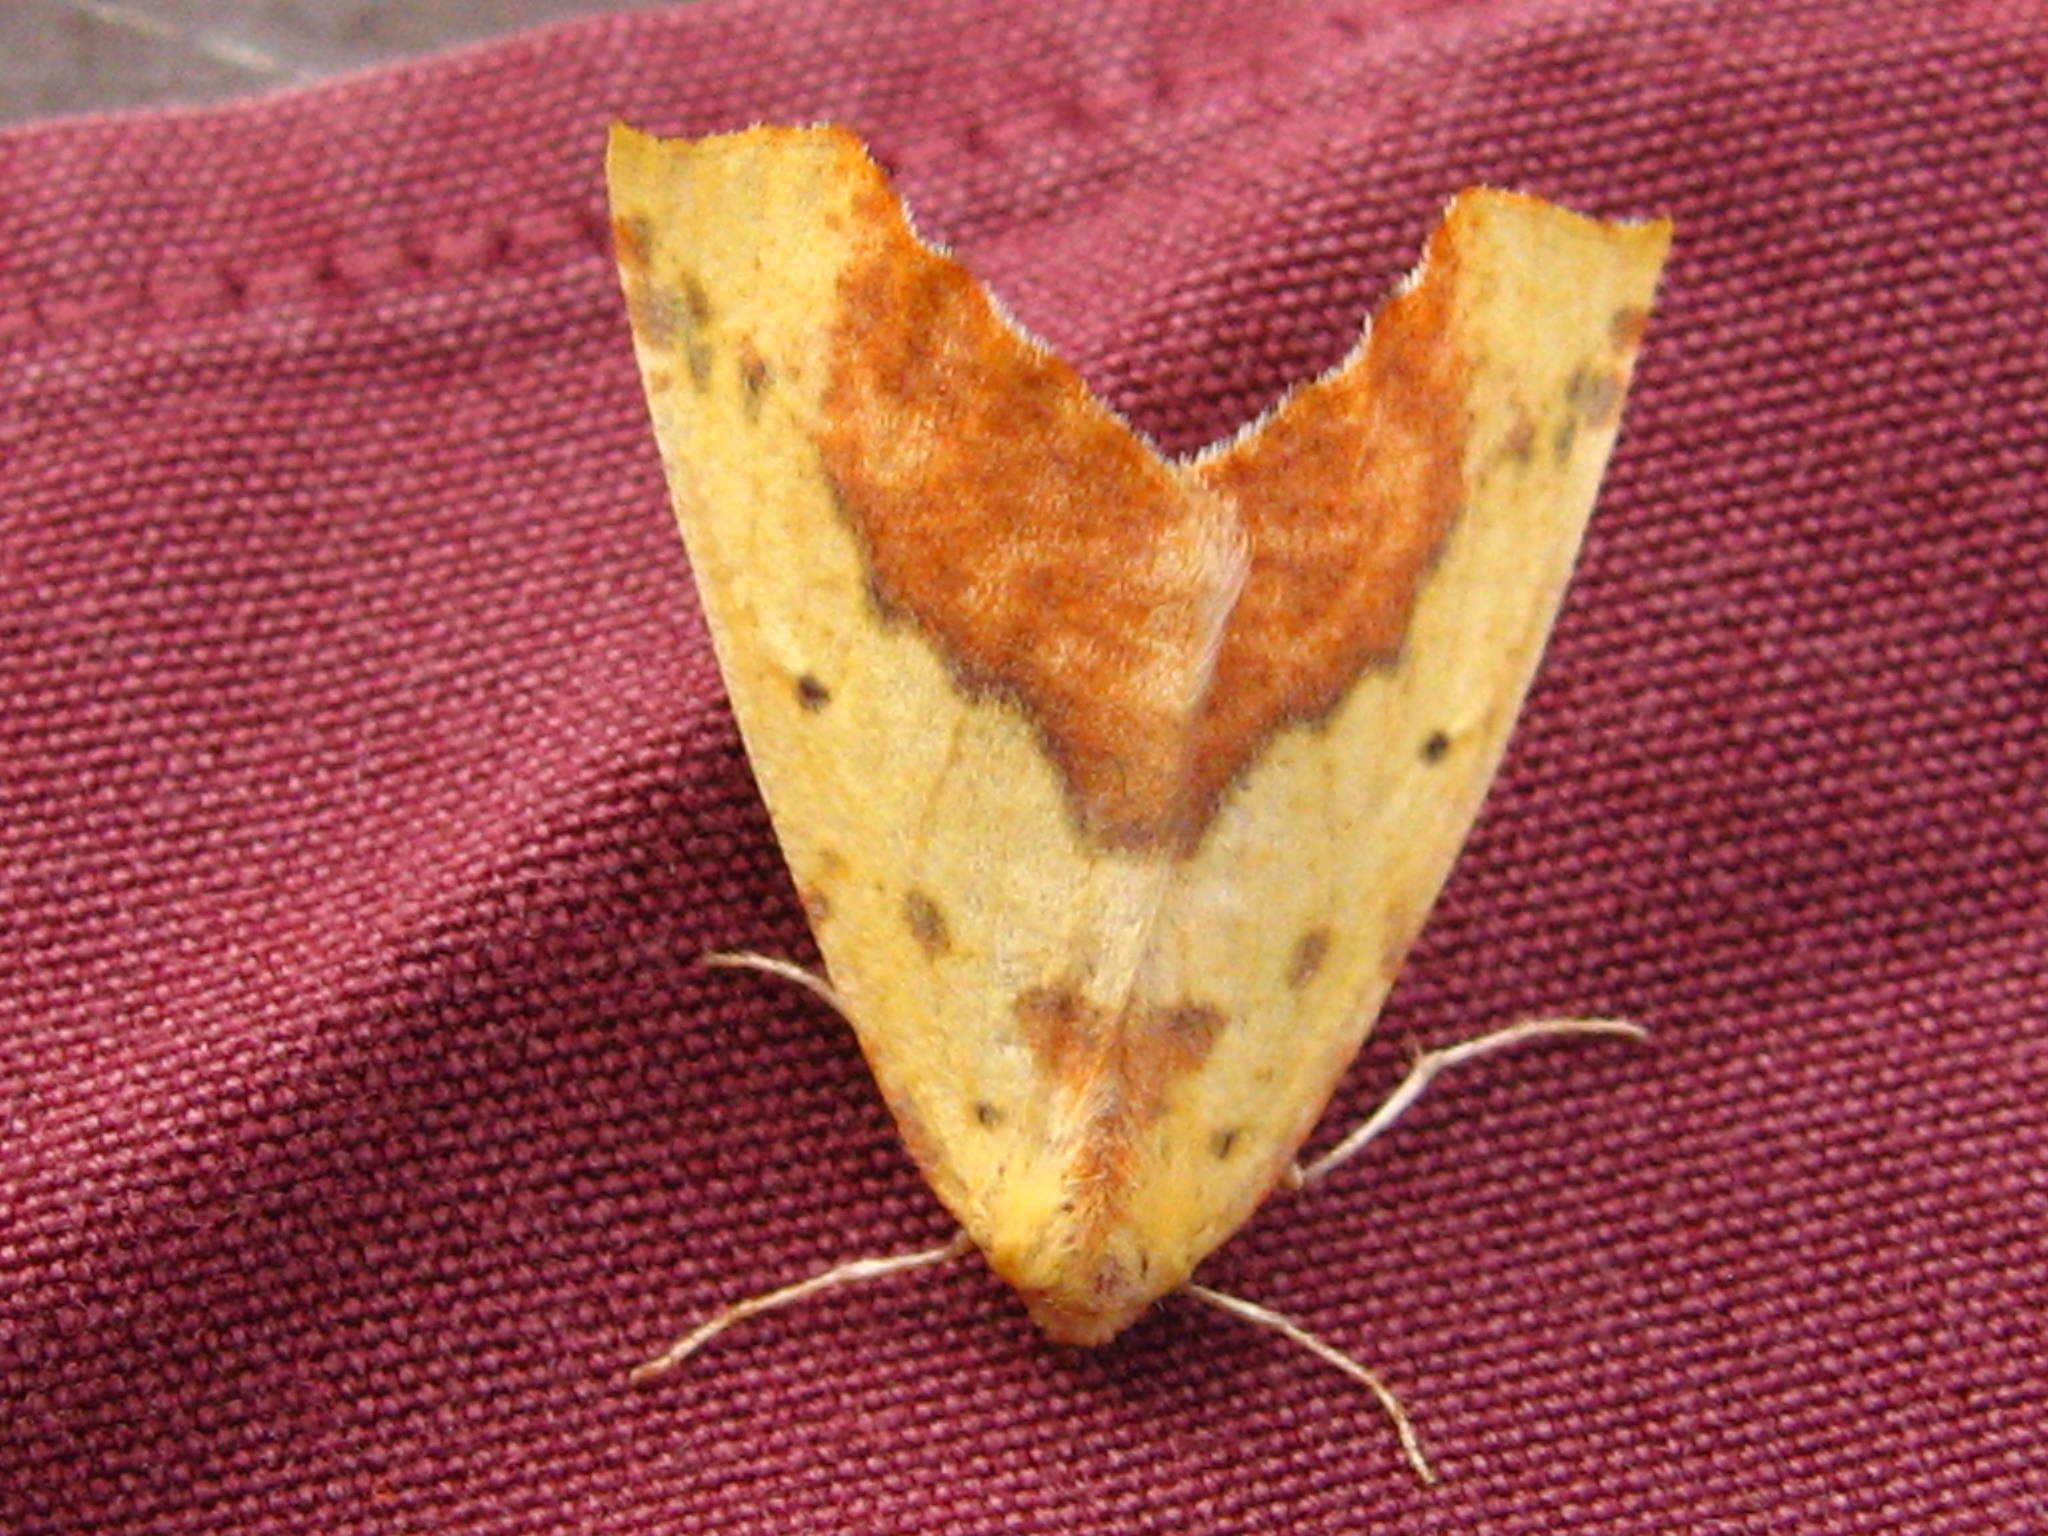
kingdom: Animalia
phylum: Arthropoda
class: Insecta
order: Lepidoptera
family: Geometridae
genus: Sicya
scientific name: Sicya macularia
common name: Sharp-lined yellow
